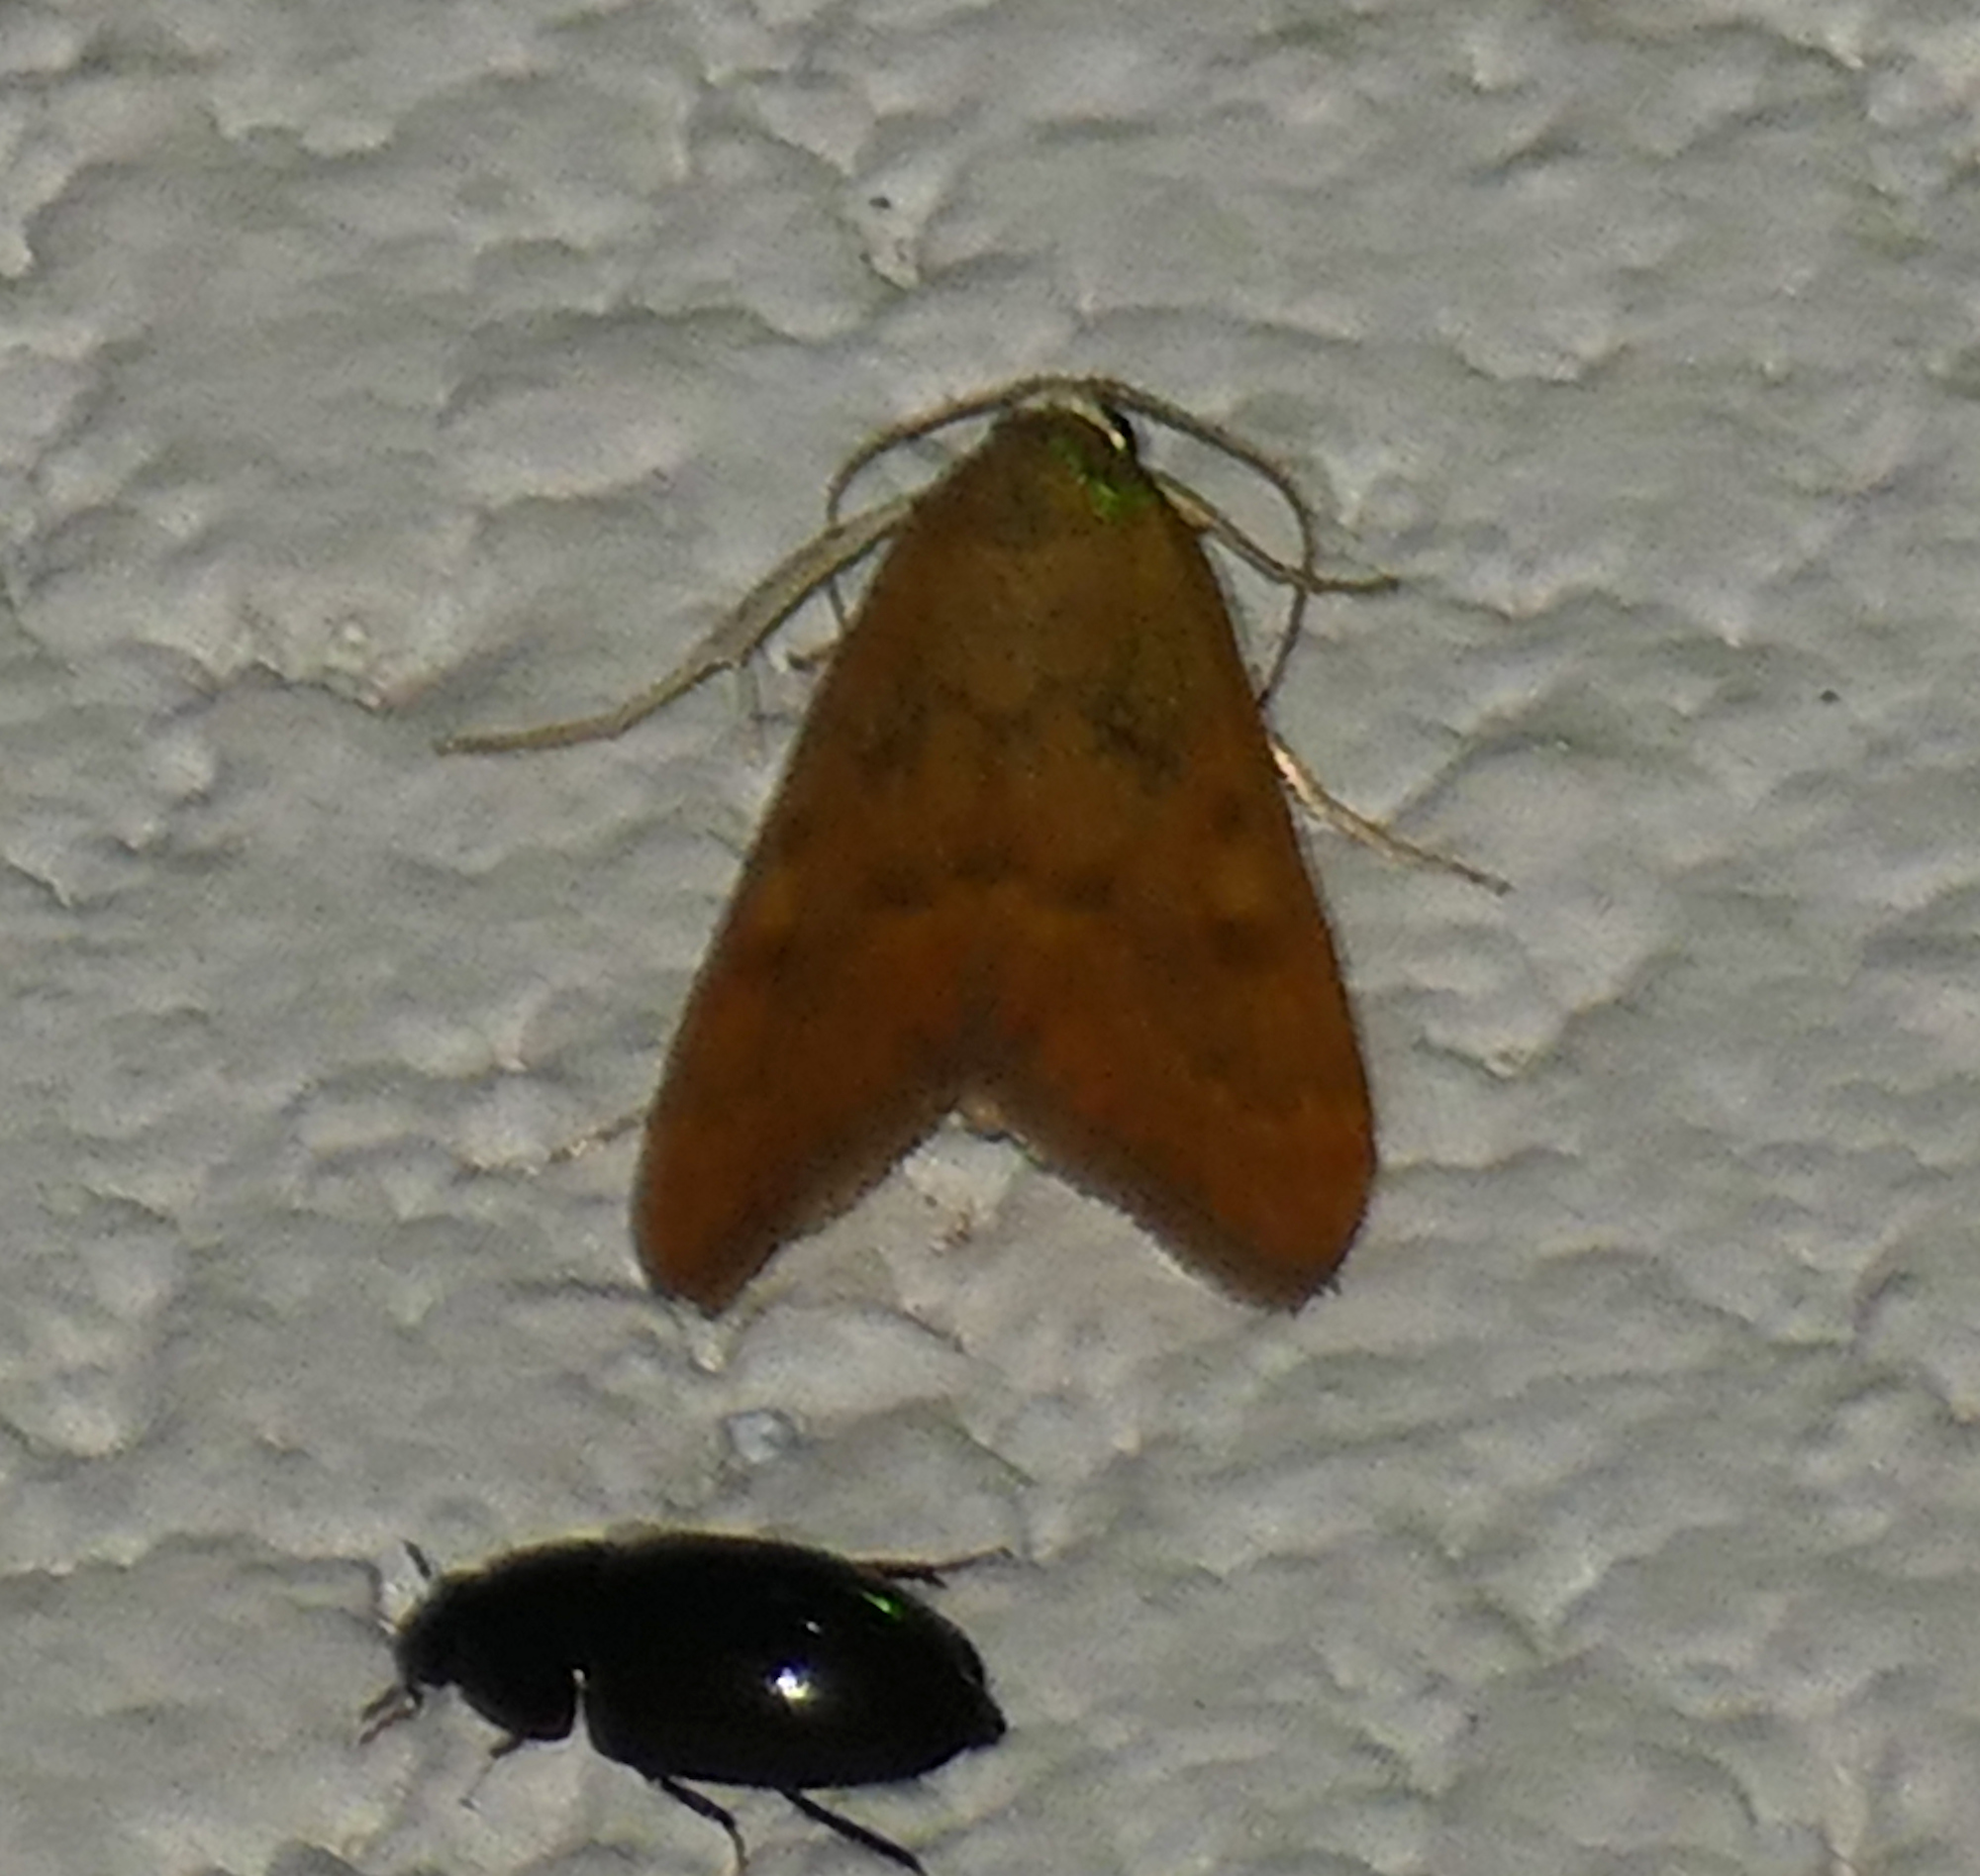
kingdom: Animalia
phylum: Arthropoda
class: Insecta
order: Lepidoptera
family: Crambidae
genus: Achyra
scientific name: Achyra rantalis
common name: Garden webworm
